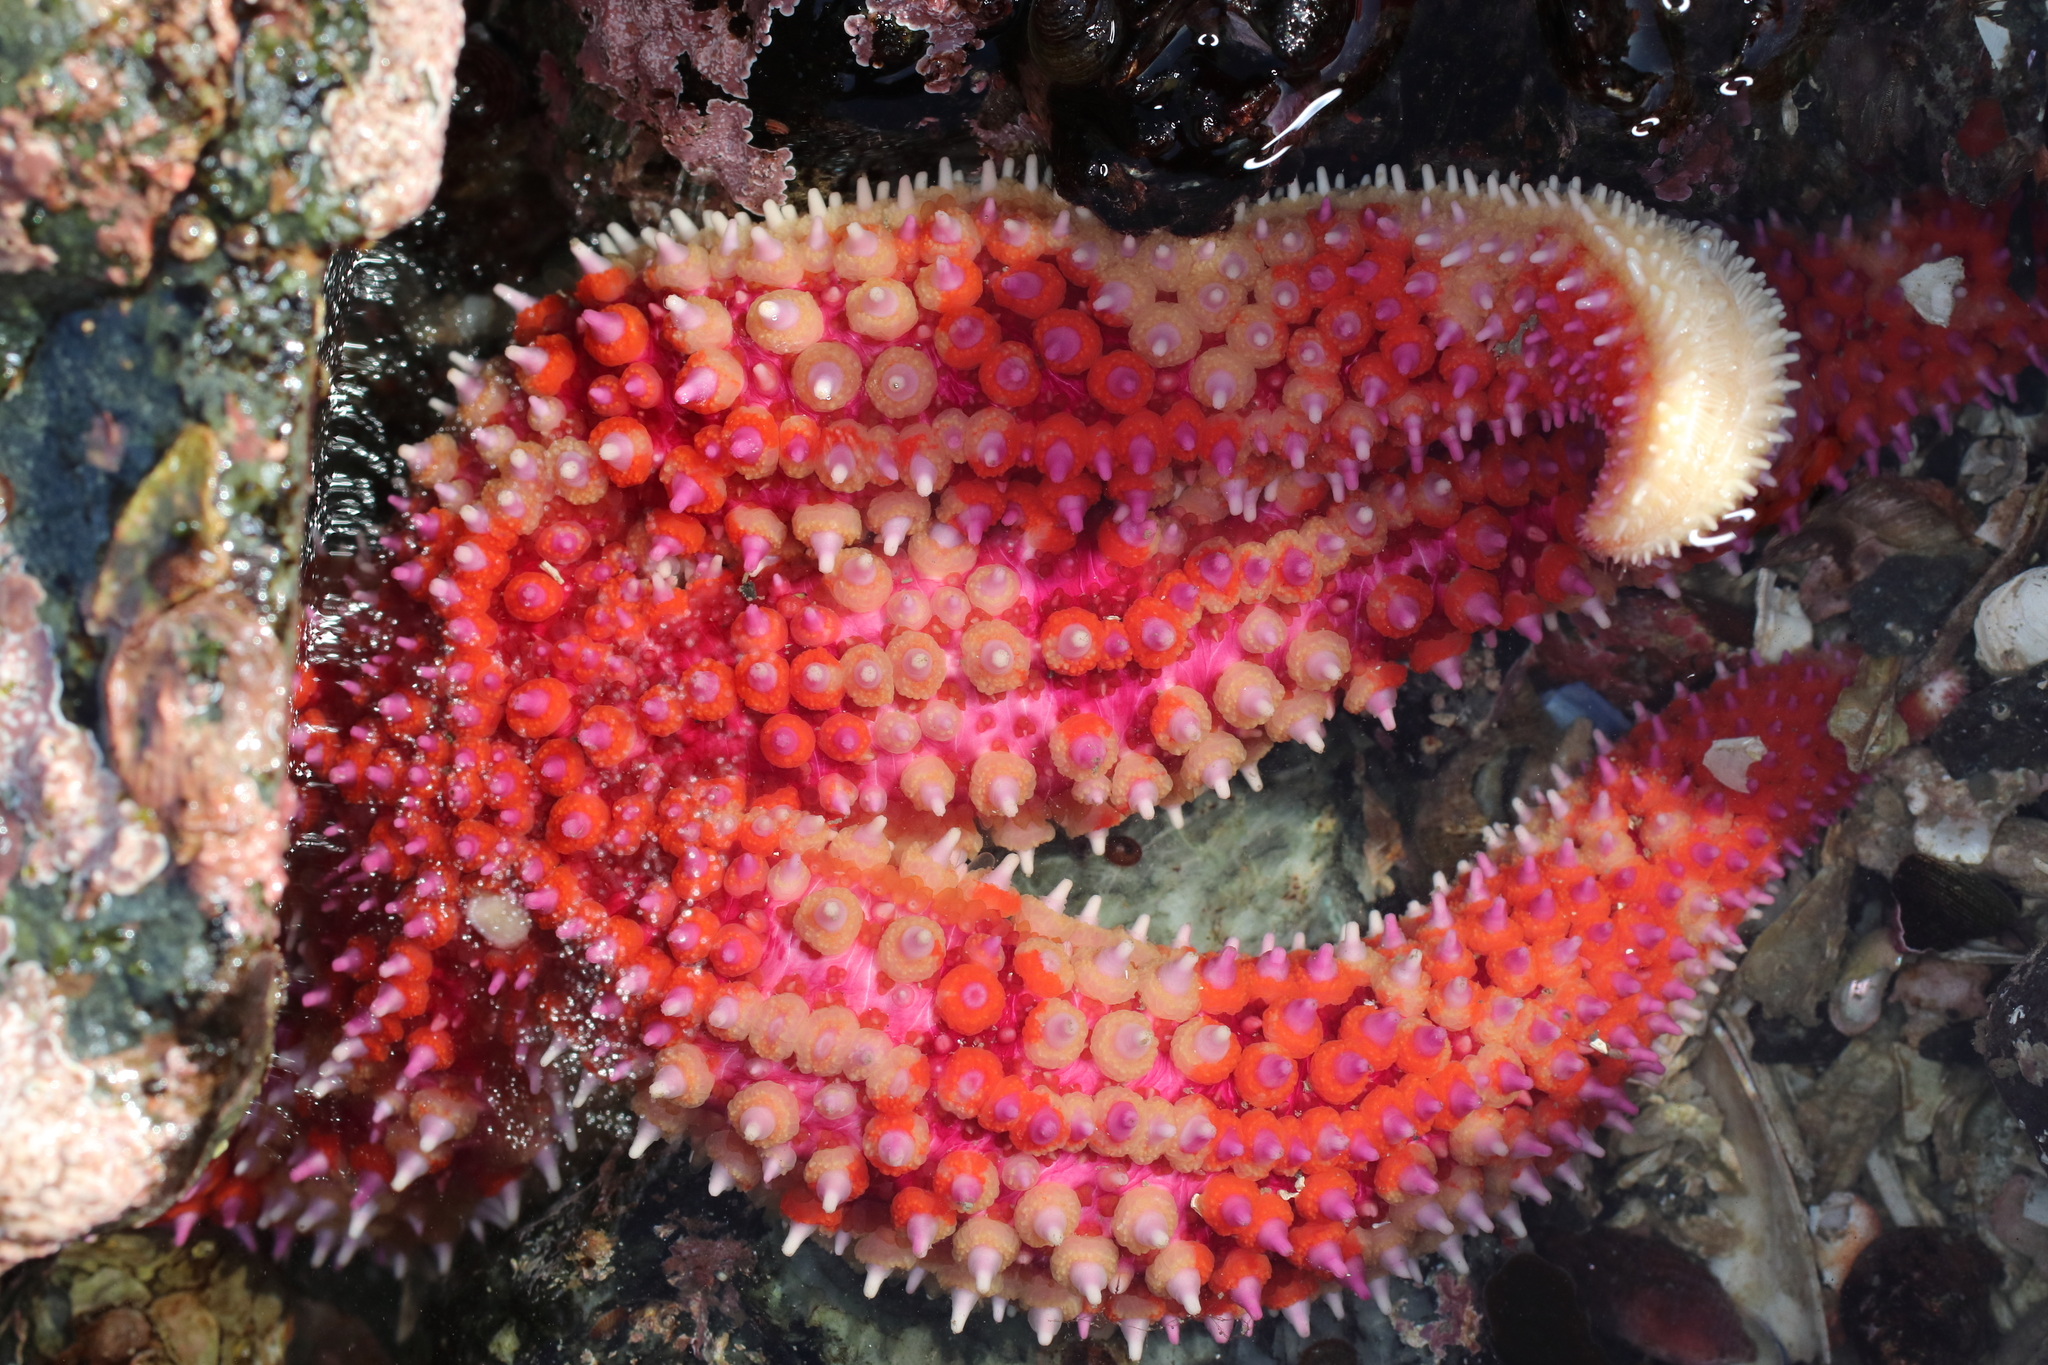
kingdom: Animalia
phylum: Echinodermata
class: Asteroidea
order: Forcipulatida
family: Asteriidae
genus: Orthasterias
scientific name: Orthasterias koehleri
